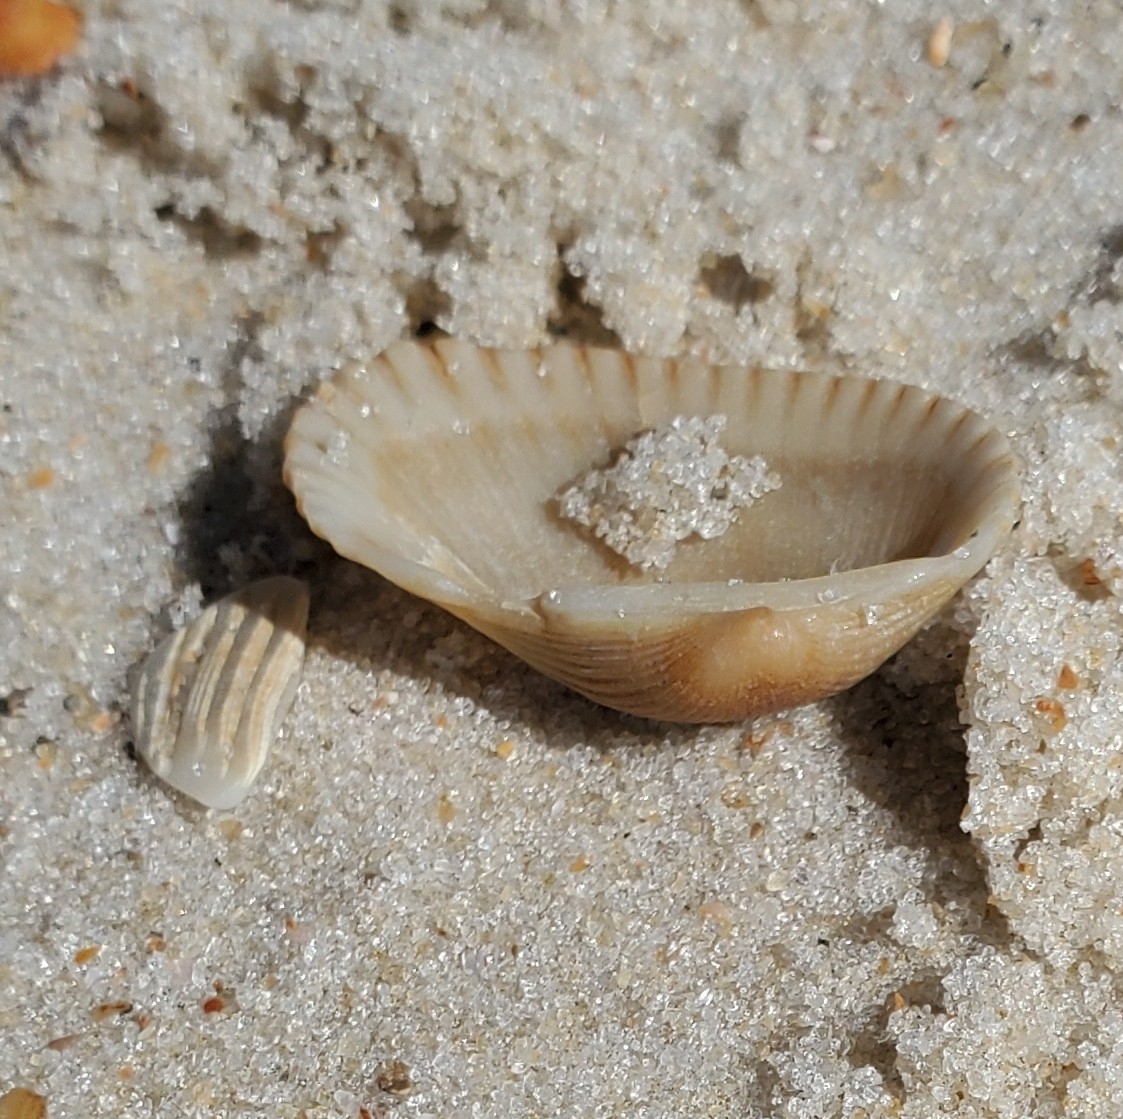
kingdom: Animalia
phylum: Mollusca
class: Bivalvia
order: Arcida
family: Arcidae
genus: Anadara
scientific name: Anadara transversa
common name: Transverse ark
